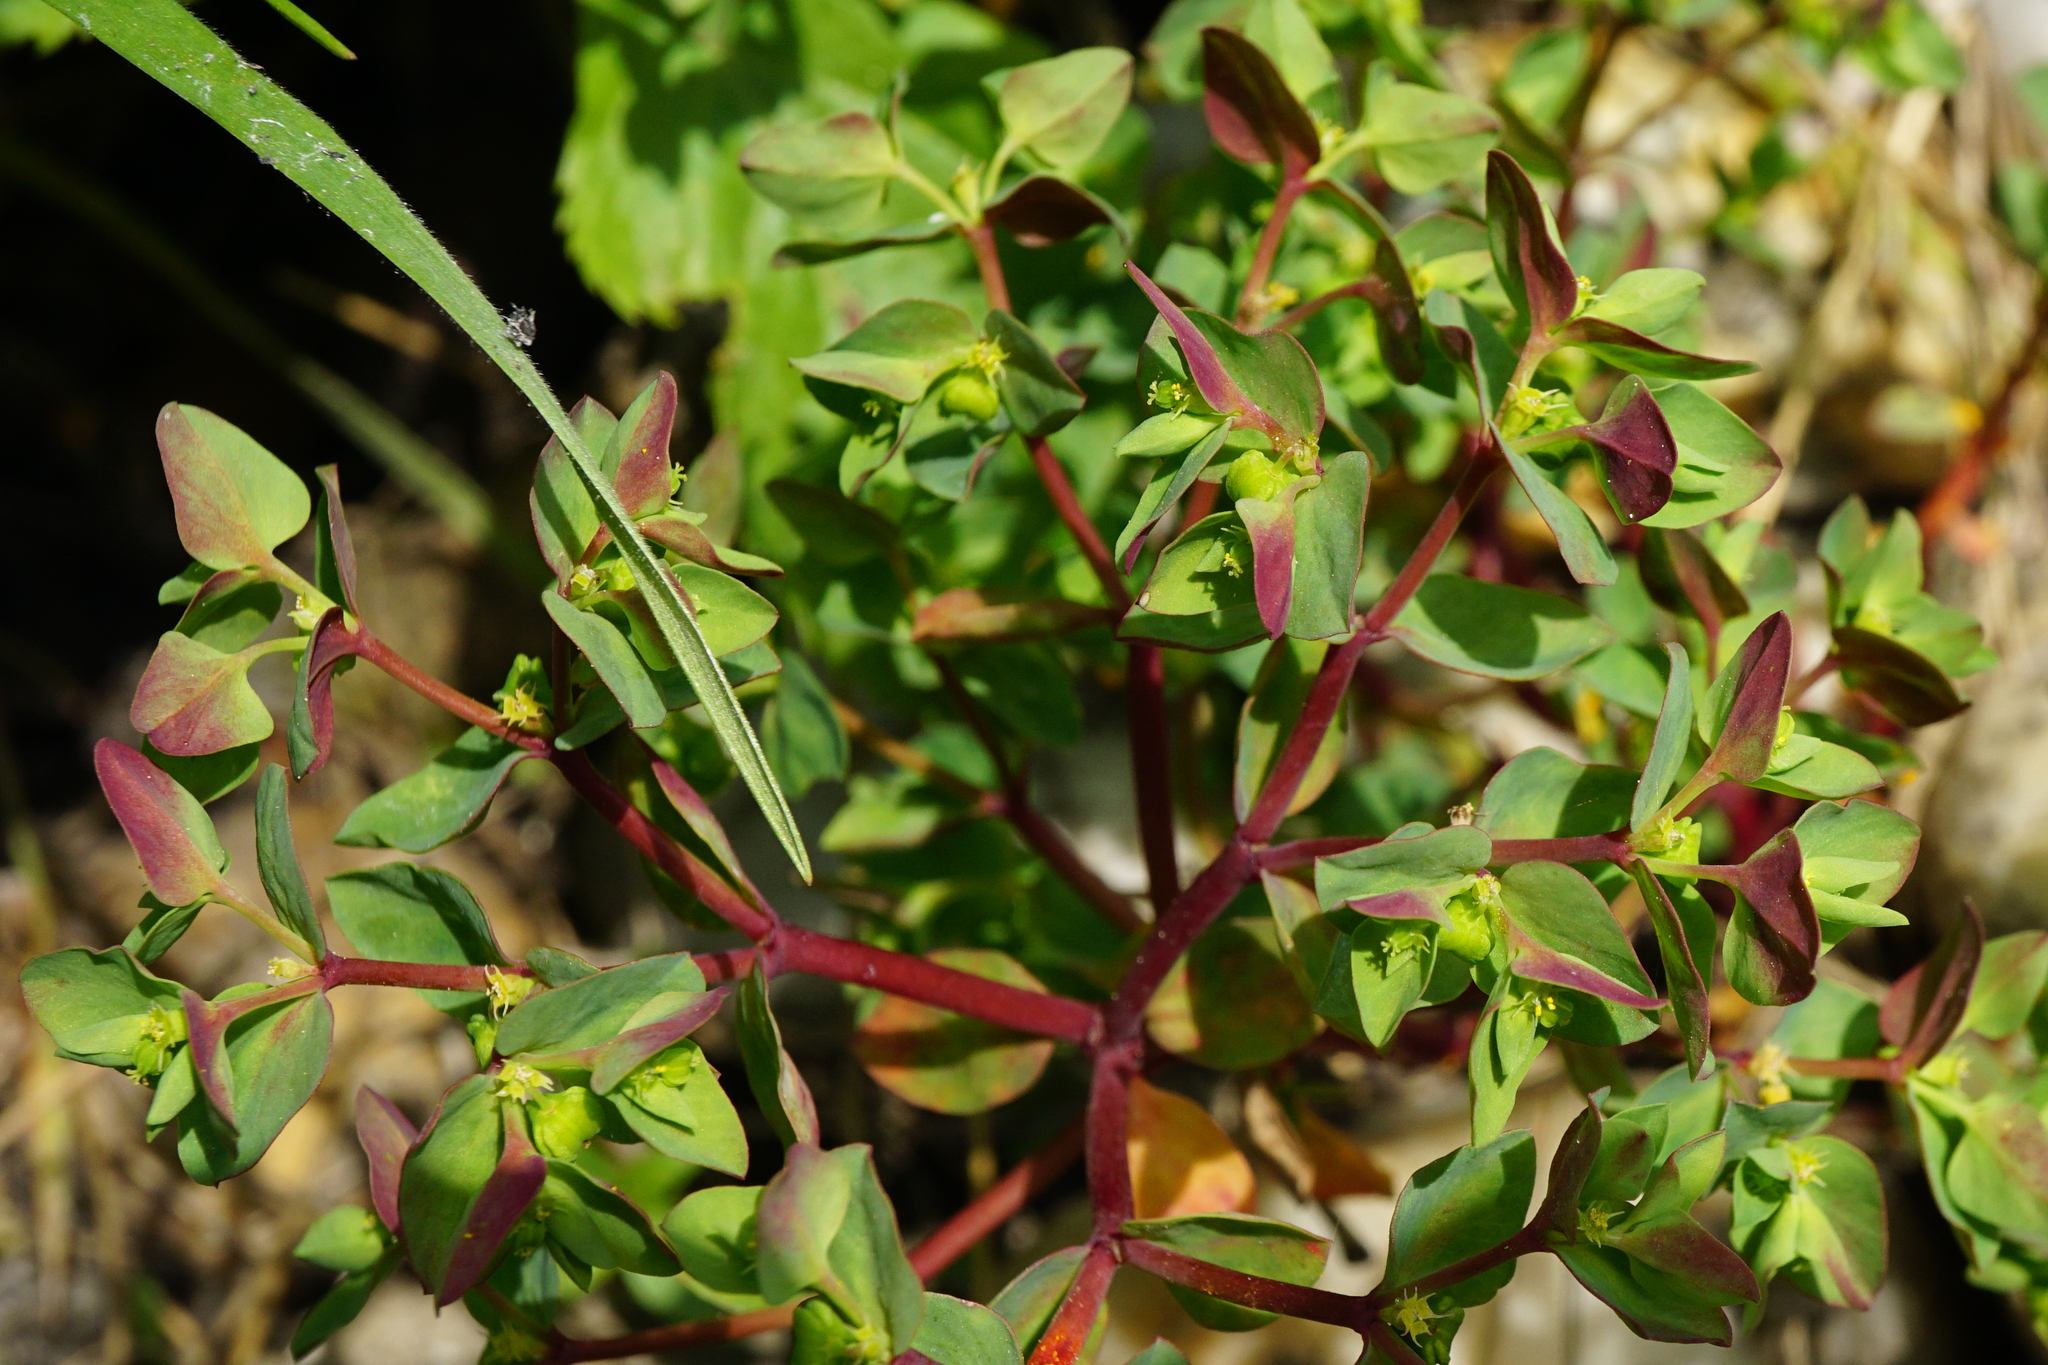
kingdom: Plantae
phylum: Tracheophyta
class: Magnoliopsida
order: Malpighiales
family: Euphorbiaceae
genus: Euphorbia
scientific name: Euphorbia peplus
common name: Petty spurge
